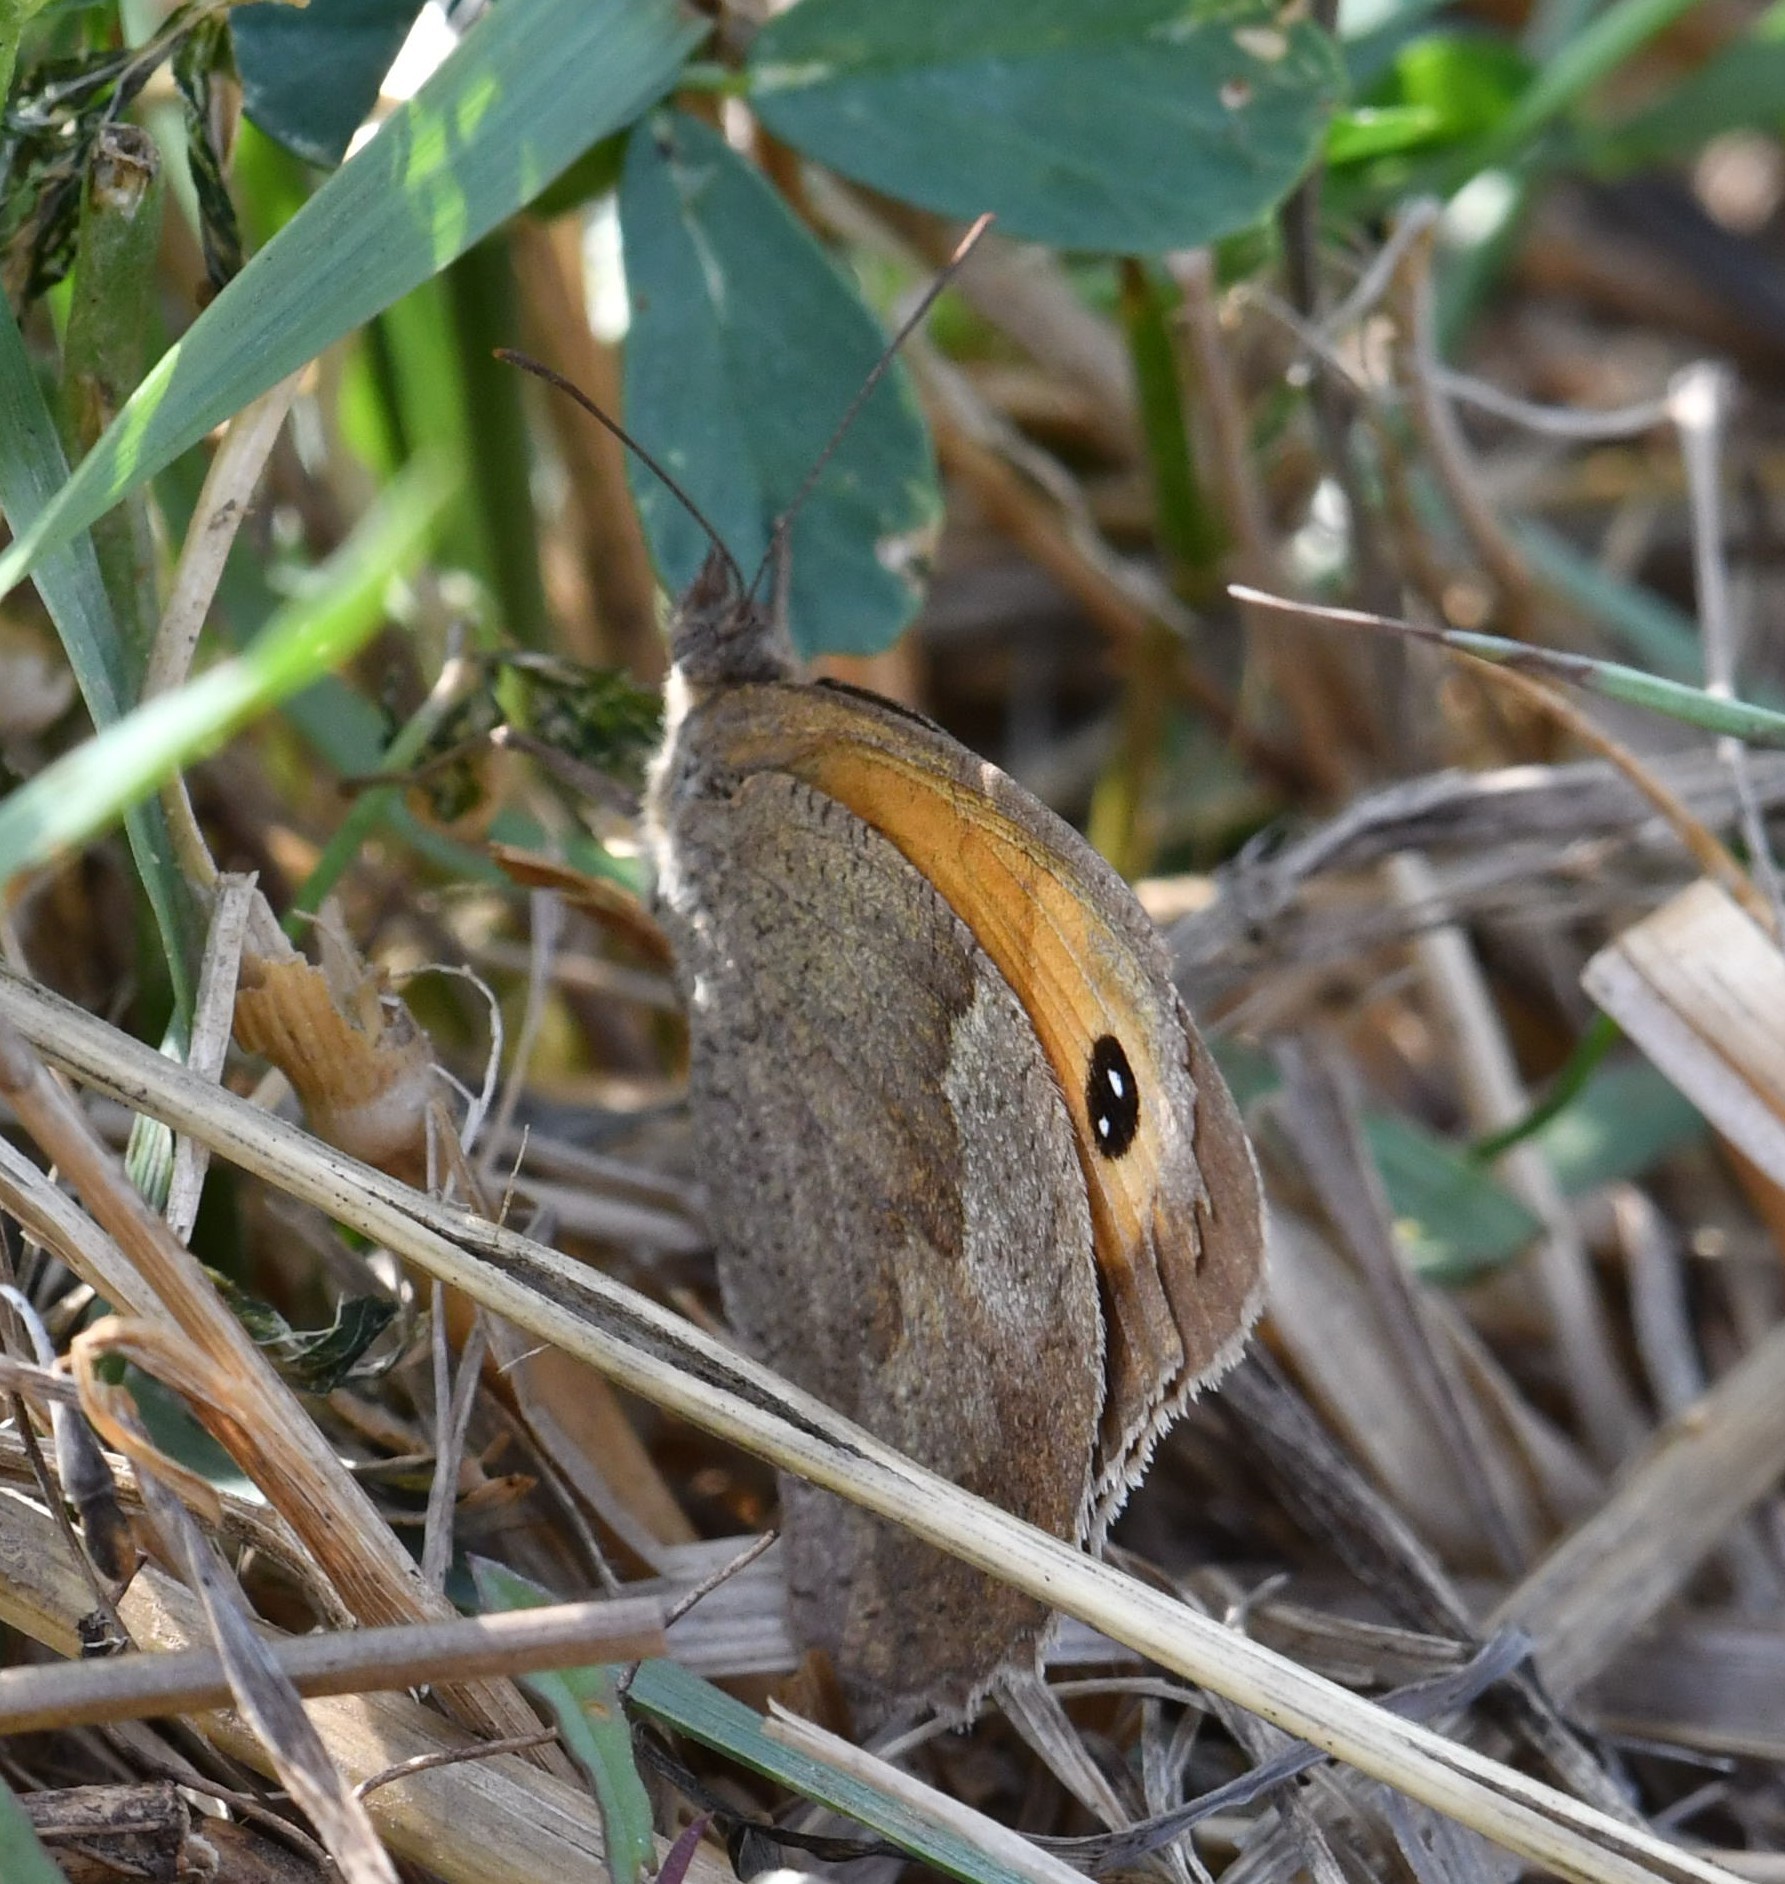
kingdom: Animalia
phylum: Arthropoda
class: Insecta
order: Lepidoptera
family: Nymphalidae
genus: Maniola
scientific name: Maniola jurtina
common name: Meadow brown
